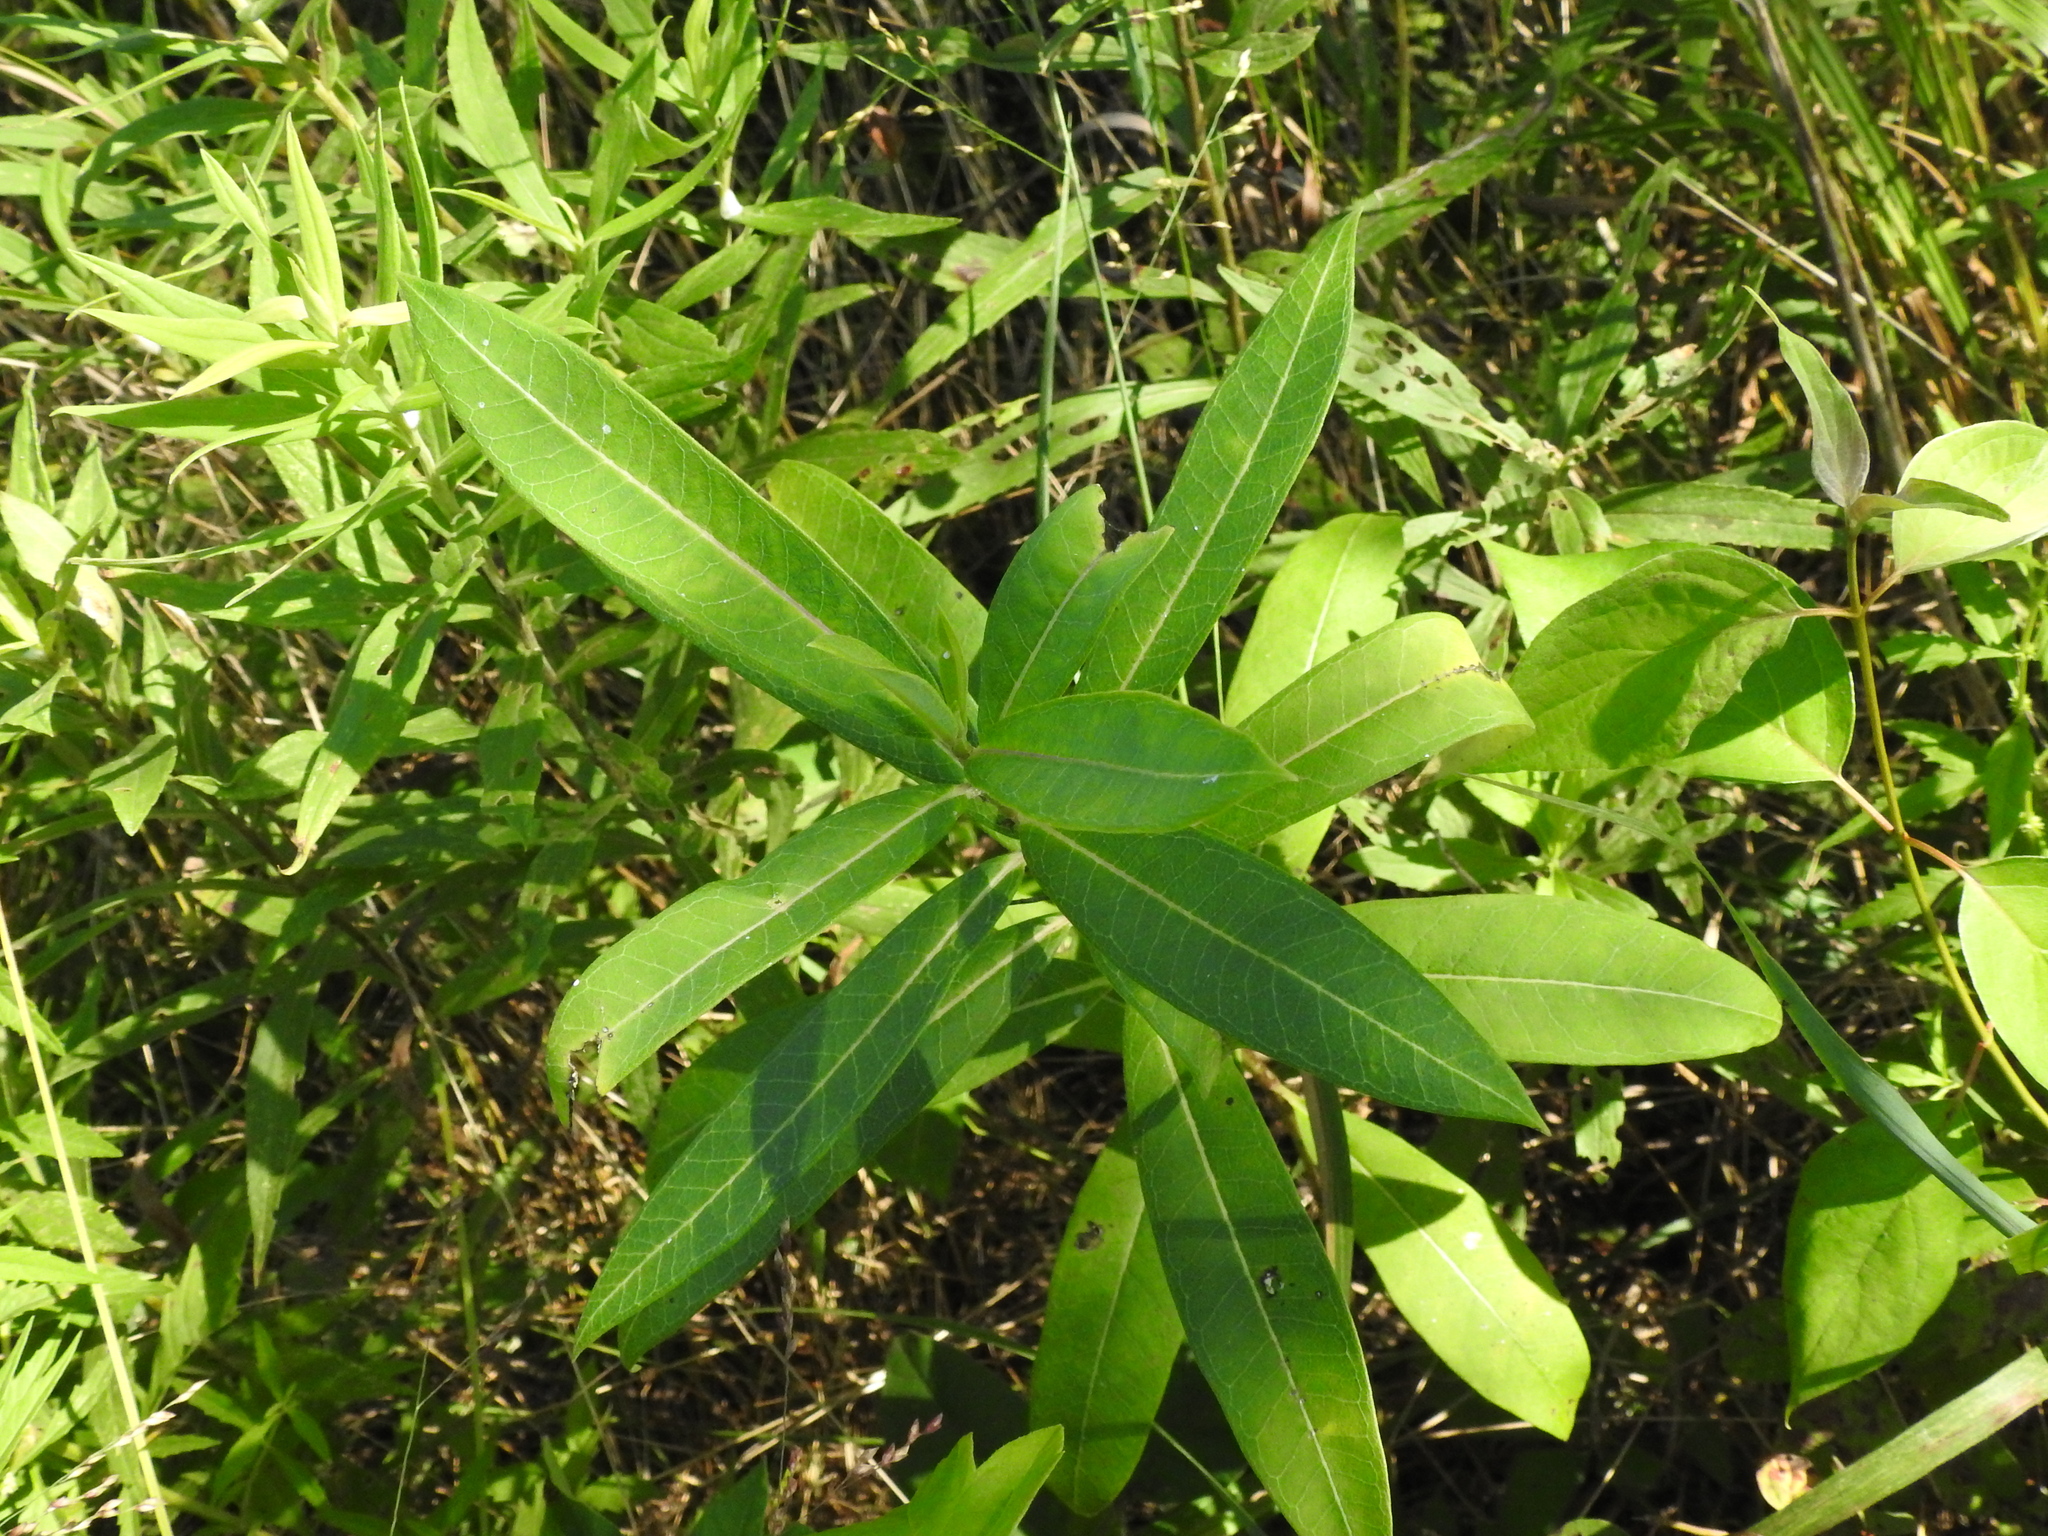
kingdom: Plantae
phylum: Tracheophyta
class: Magnoliopsida
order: Gentianales
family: Apocynaceae
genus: Asclepias
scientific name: Asclepias incarnata
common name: Swamp milkweed
